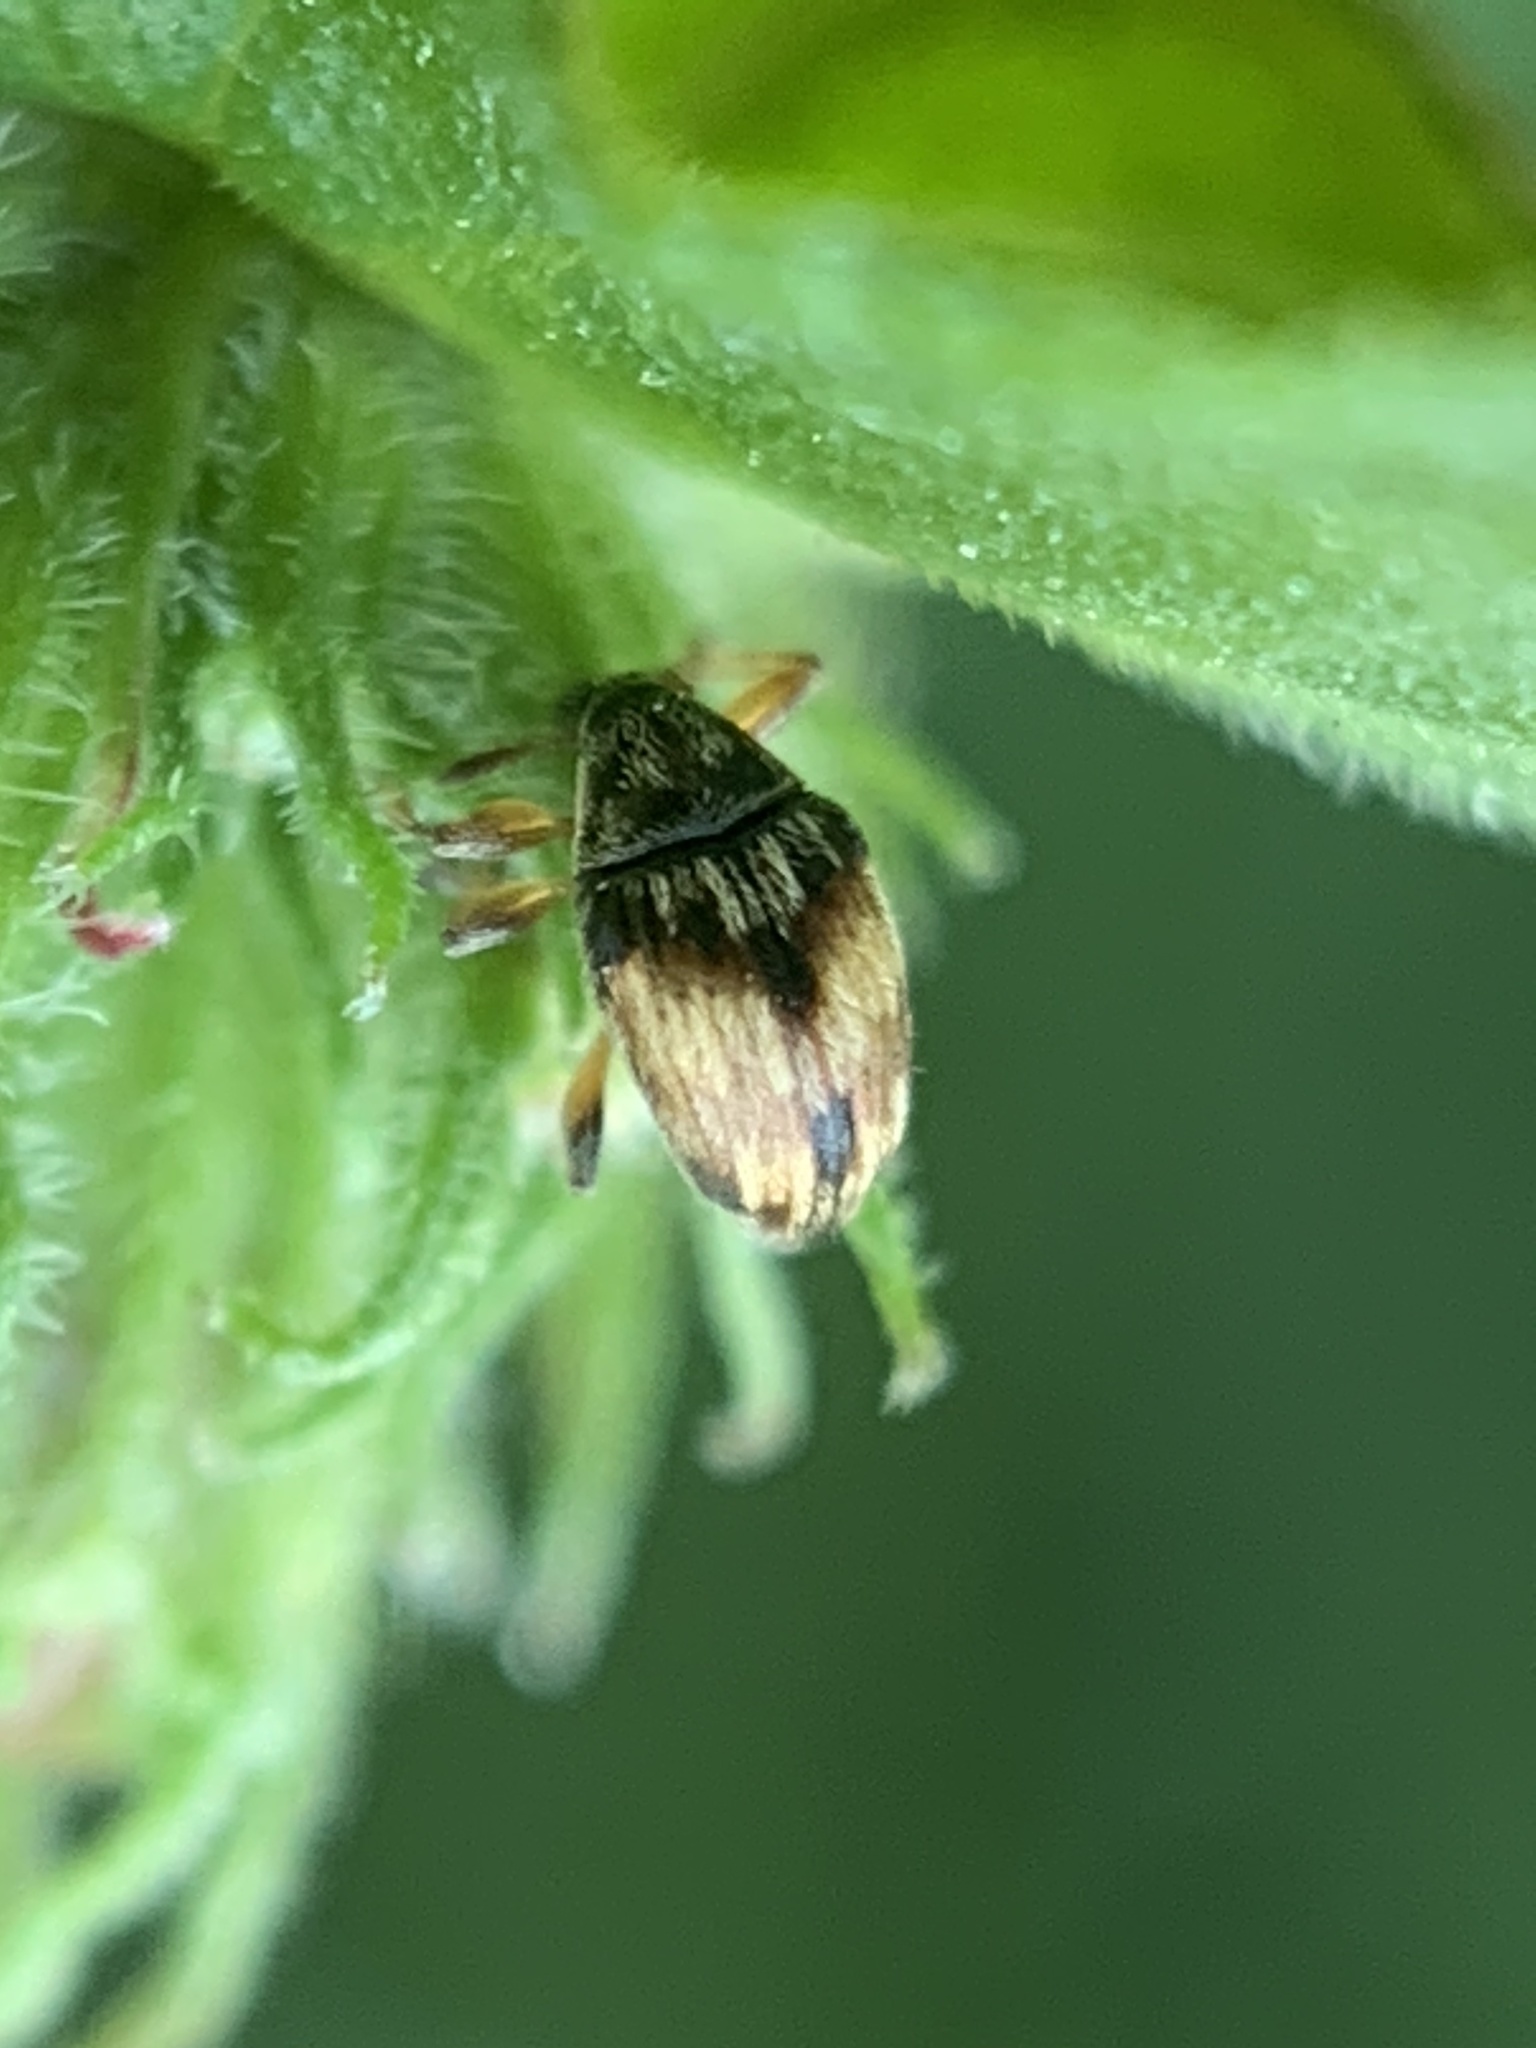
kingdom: Animalia
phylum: Arthropoda
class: Insecta
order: Coleoptera
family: Brentidae
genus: Nanophyes
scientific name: Nanophyes marmoratus
